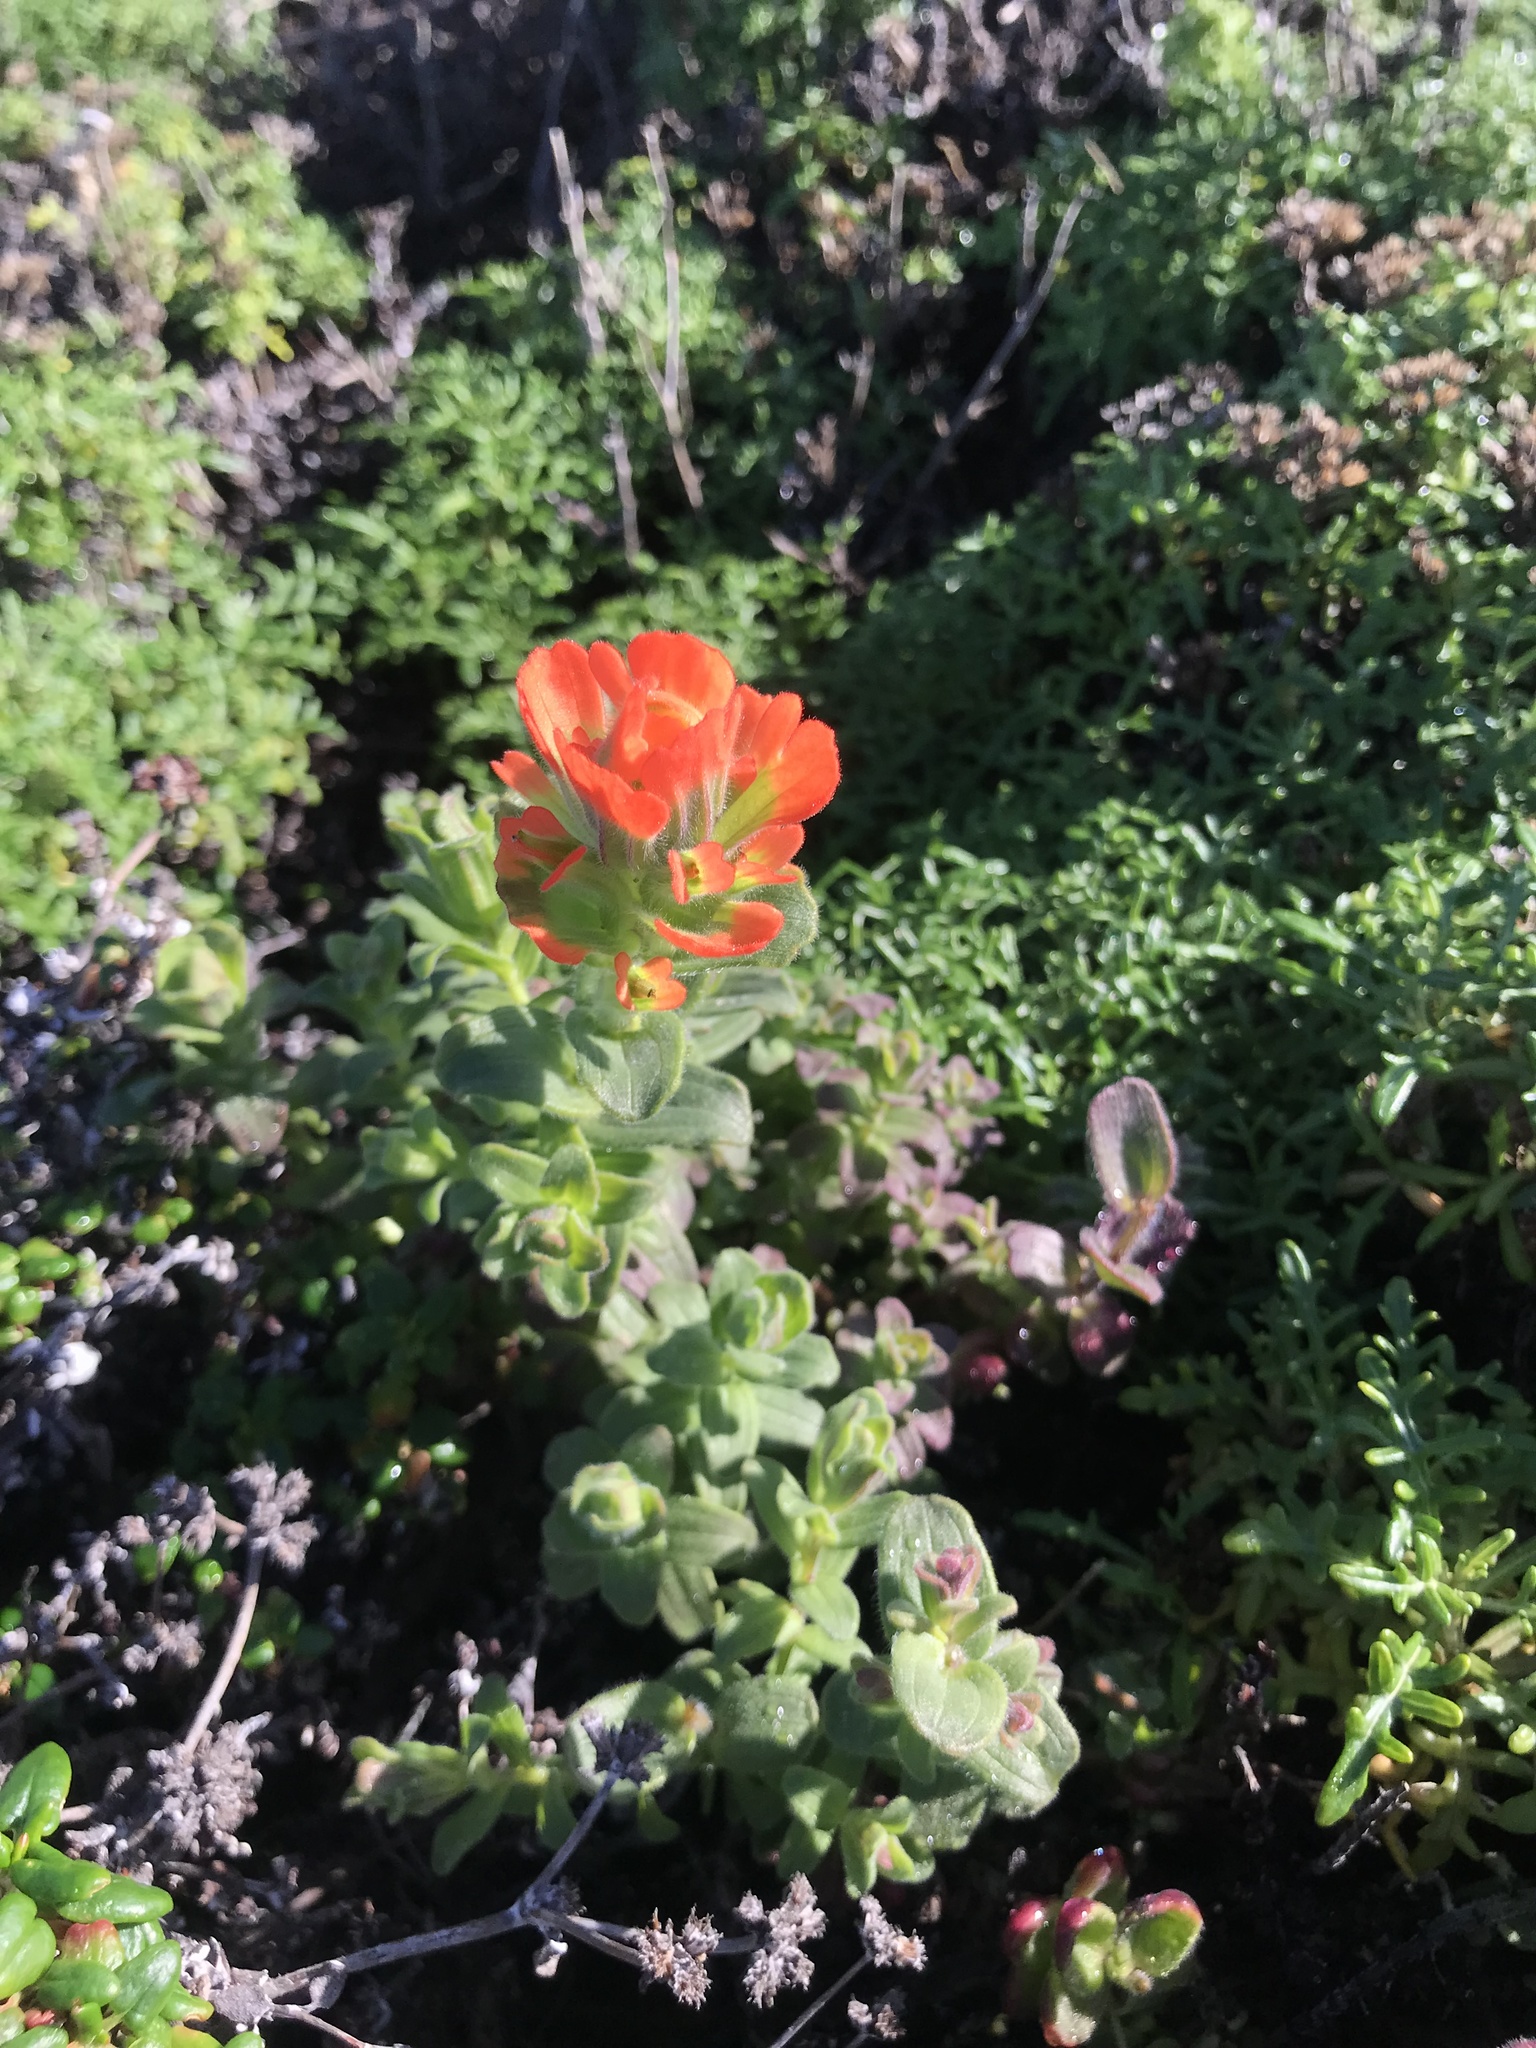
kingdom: Plantae
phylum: Tracheophyta
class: Magnoliopsida
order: Lamiales
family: Orobanchaceae
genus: Castilleja
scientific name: Castilleja latifolia
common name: Monterey indian paintbrush
